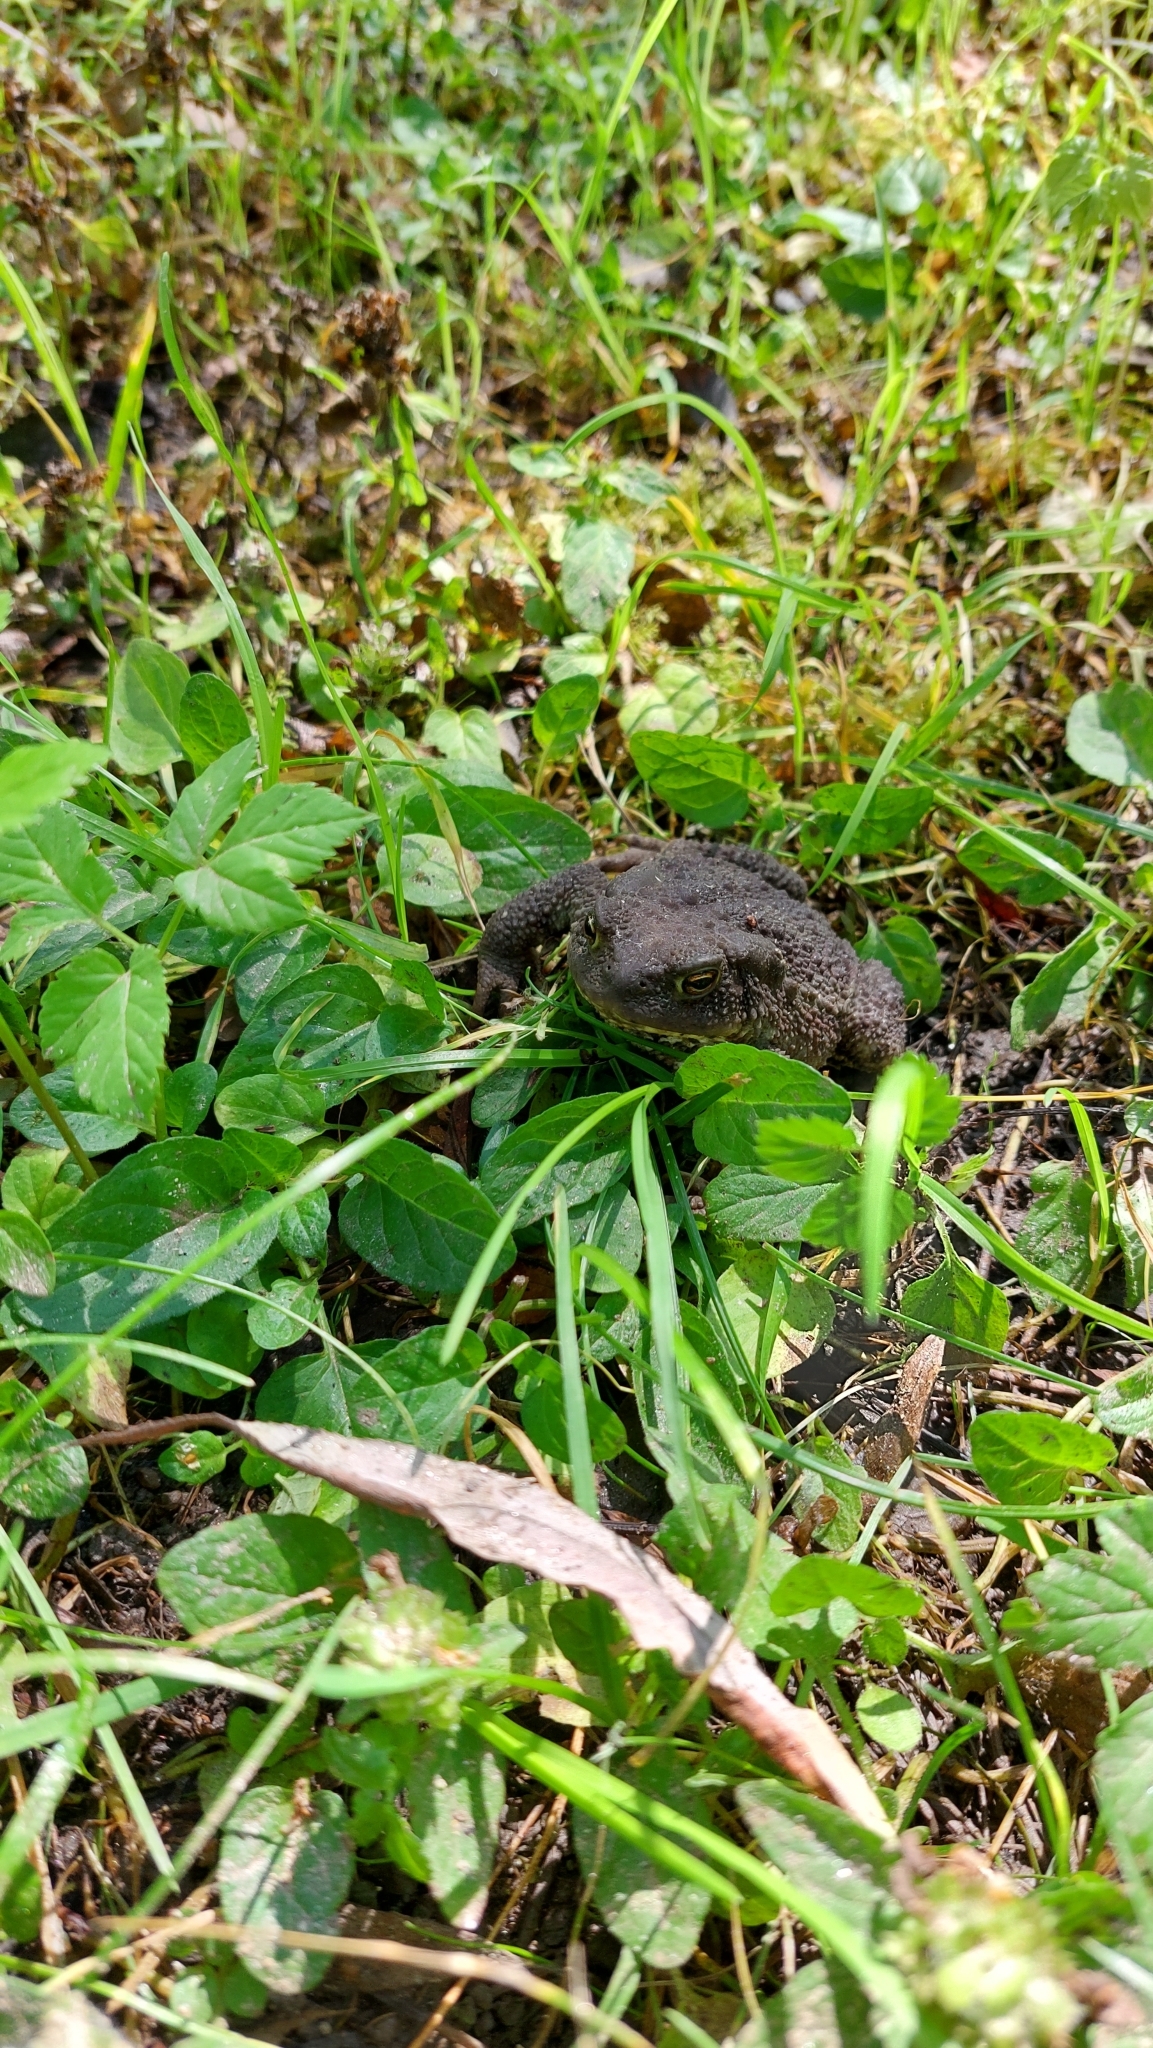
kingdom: Animalia
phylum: Chordata
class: Amphibia
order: Anura
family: Bufonidae
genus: Bufo
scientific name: Bufo bufo
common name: Common toad
